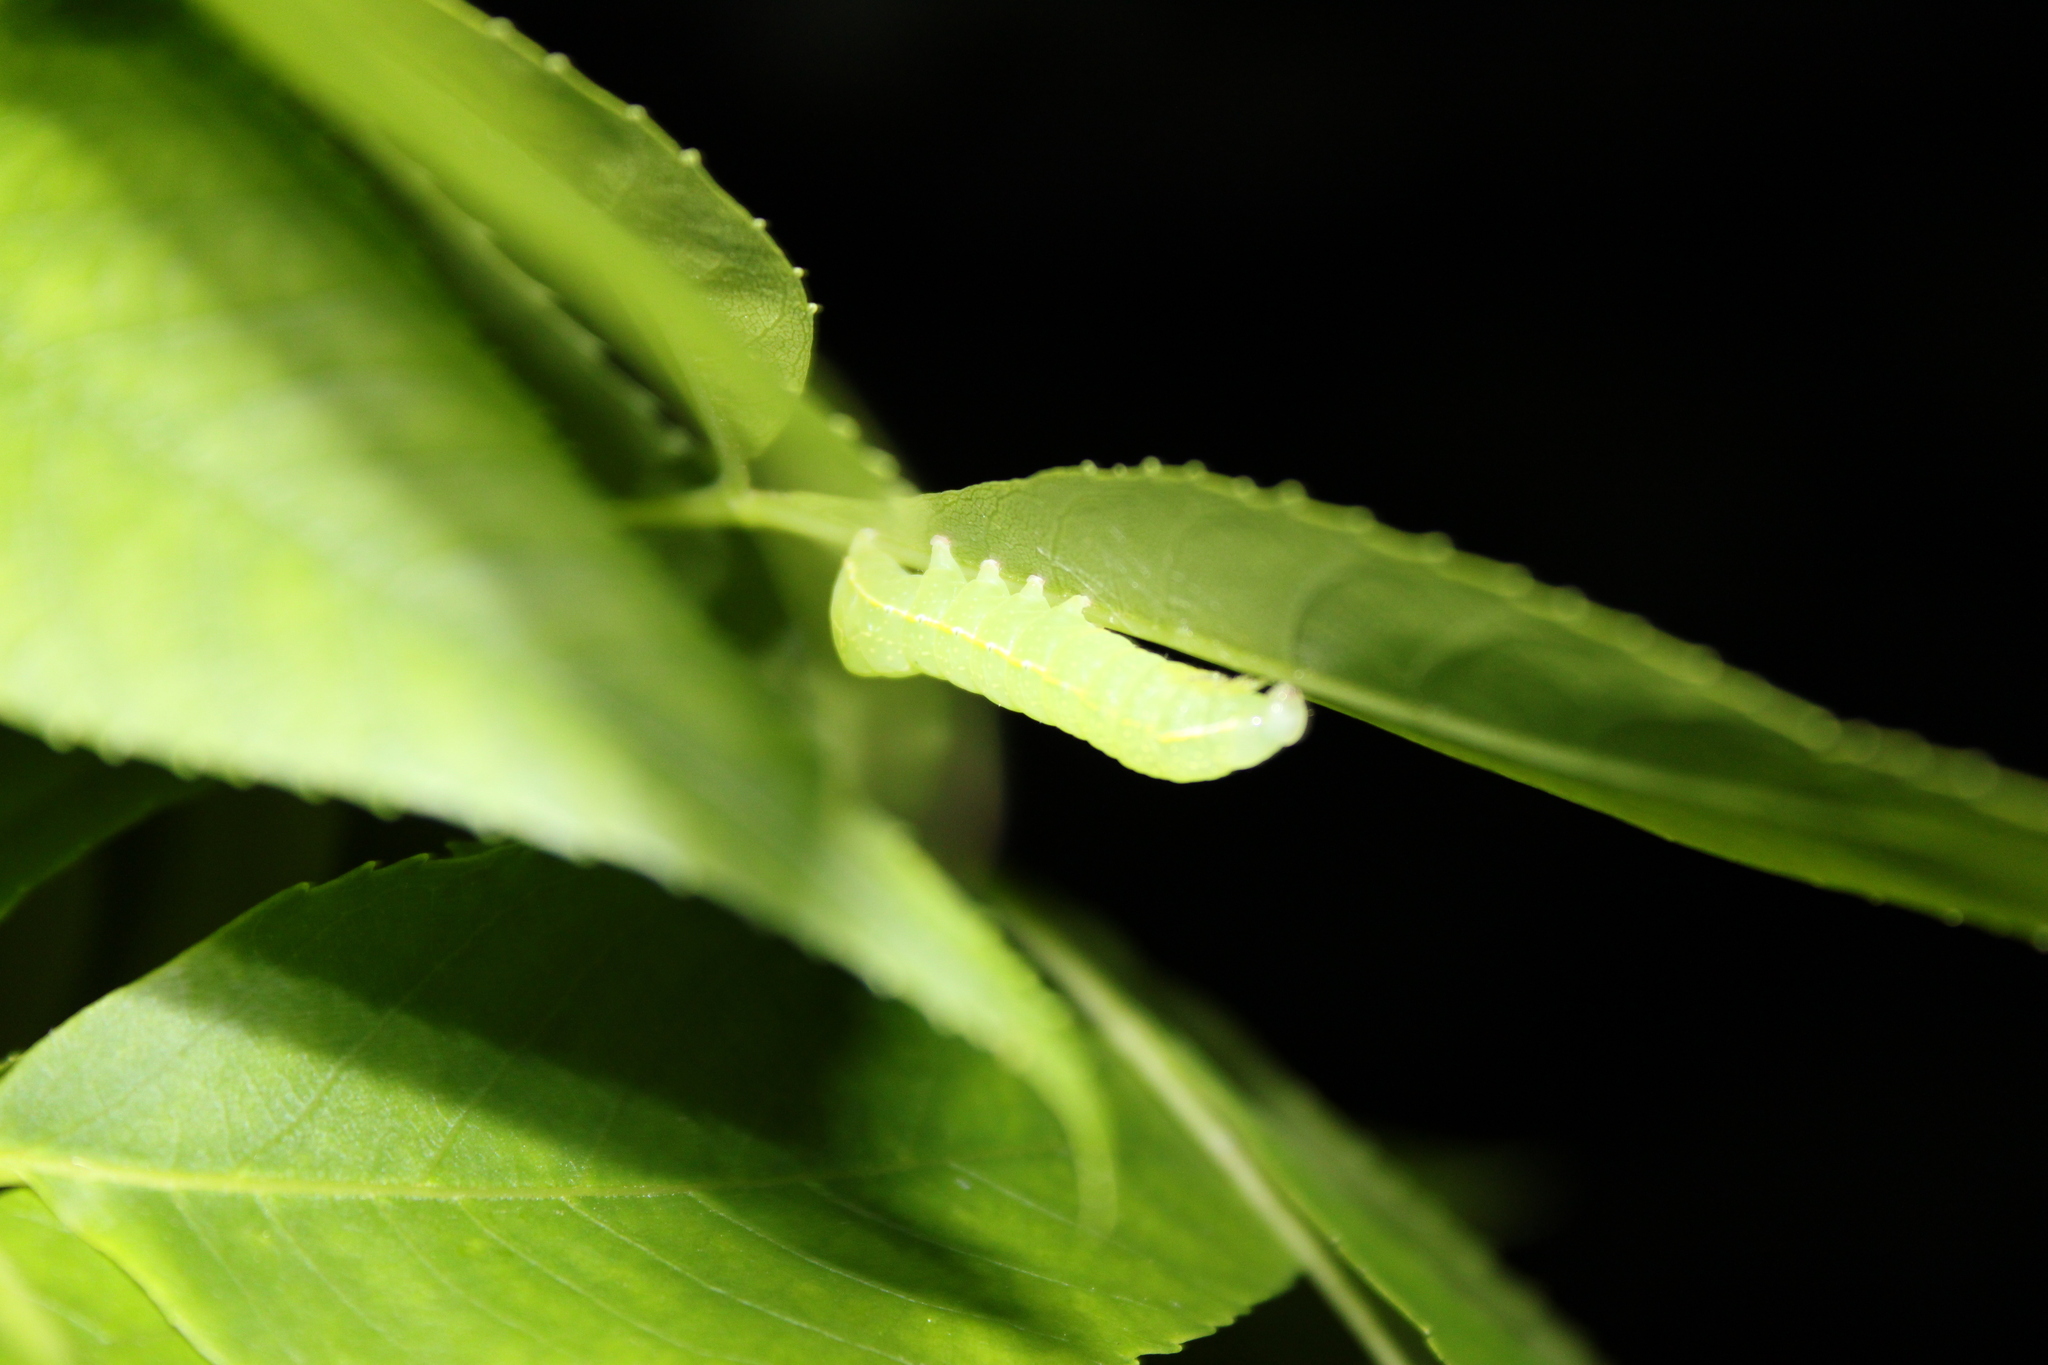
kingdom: Animalia
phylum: Arthropoda
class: Insecta
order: Lepidoptera
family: Noctuidae
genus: Amphipyra
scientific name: Amphipyra pyramidoides
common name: American copper underwing
